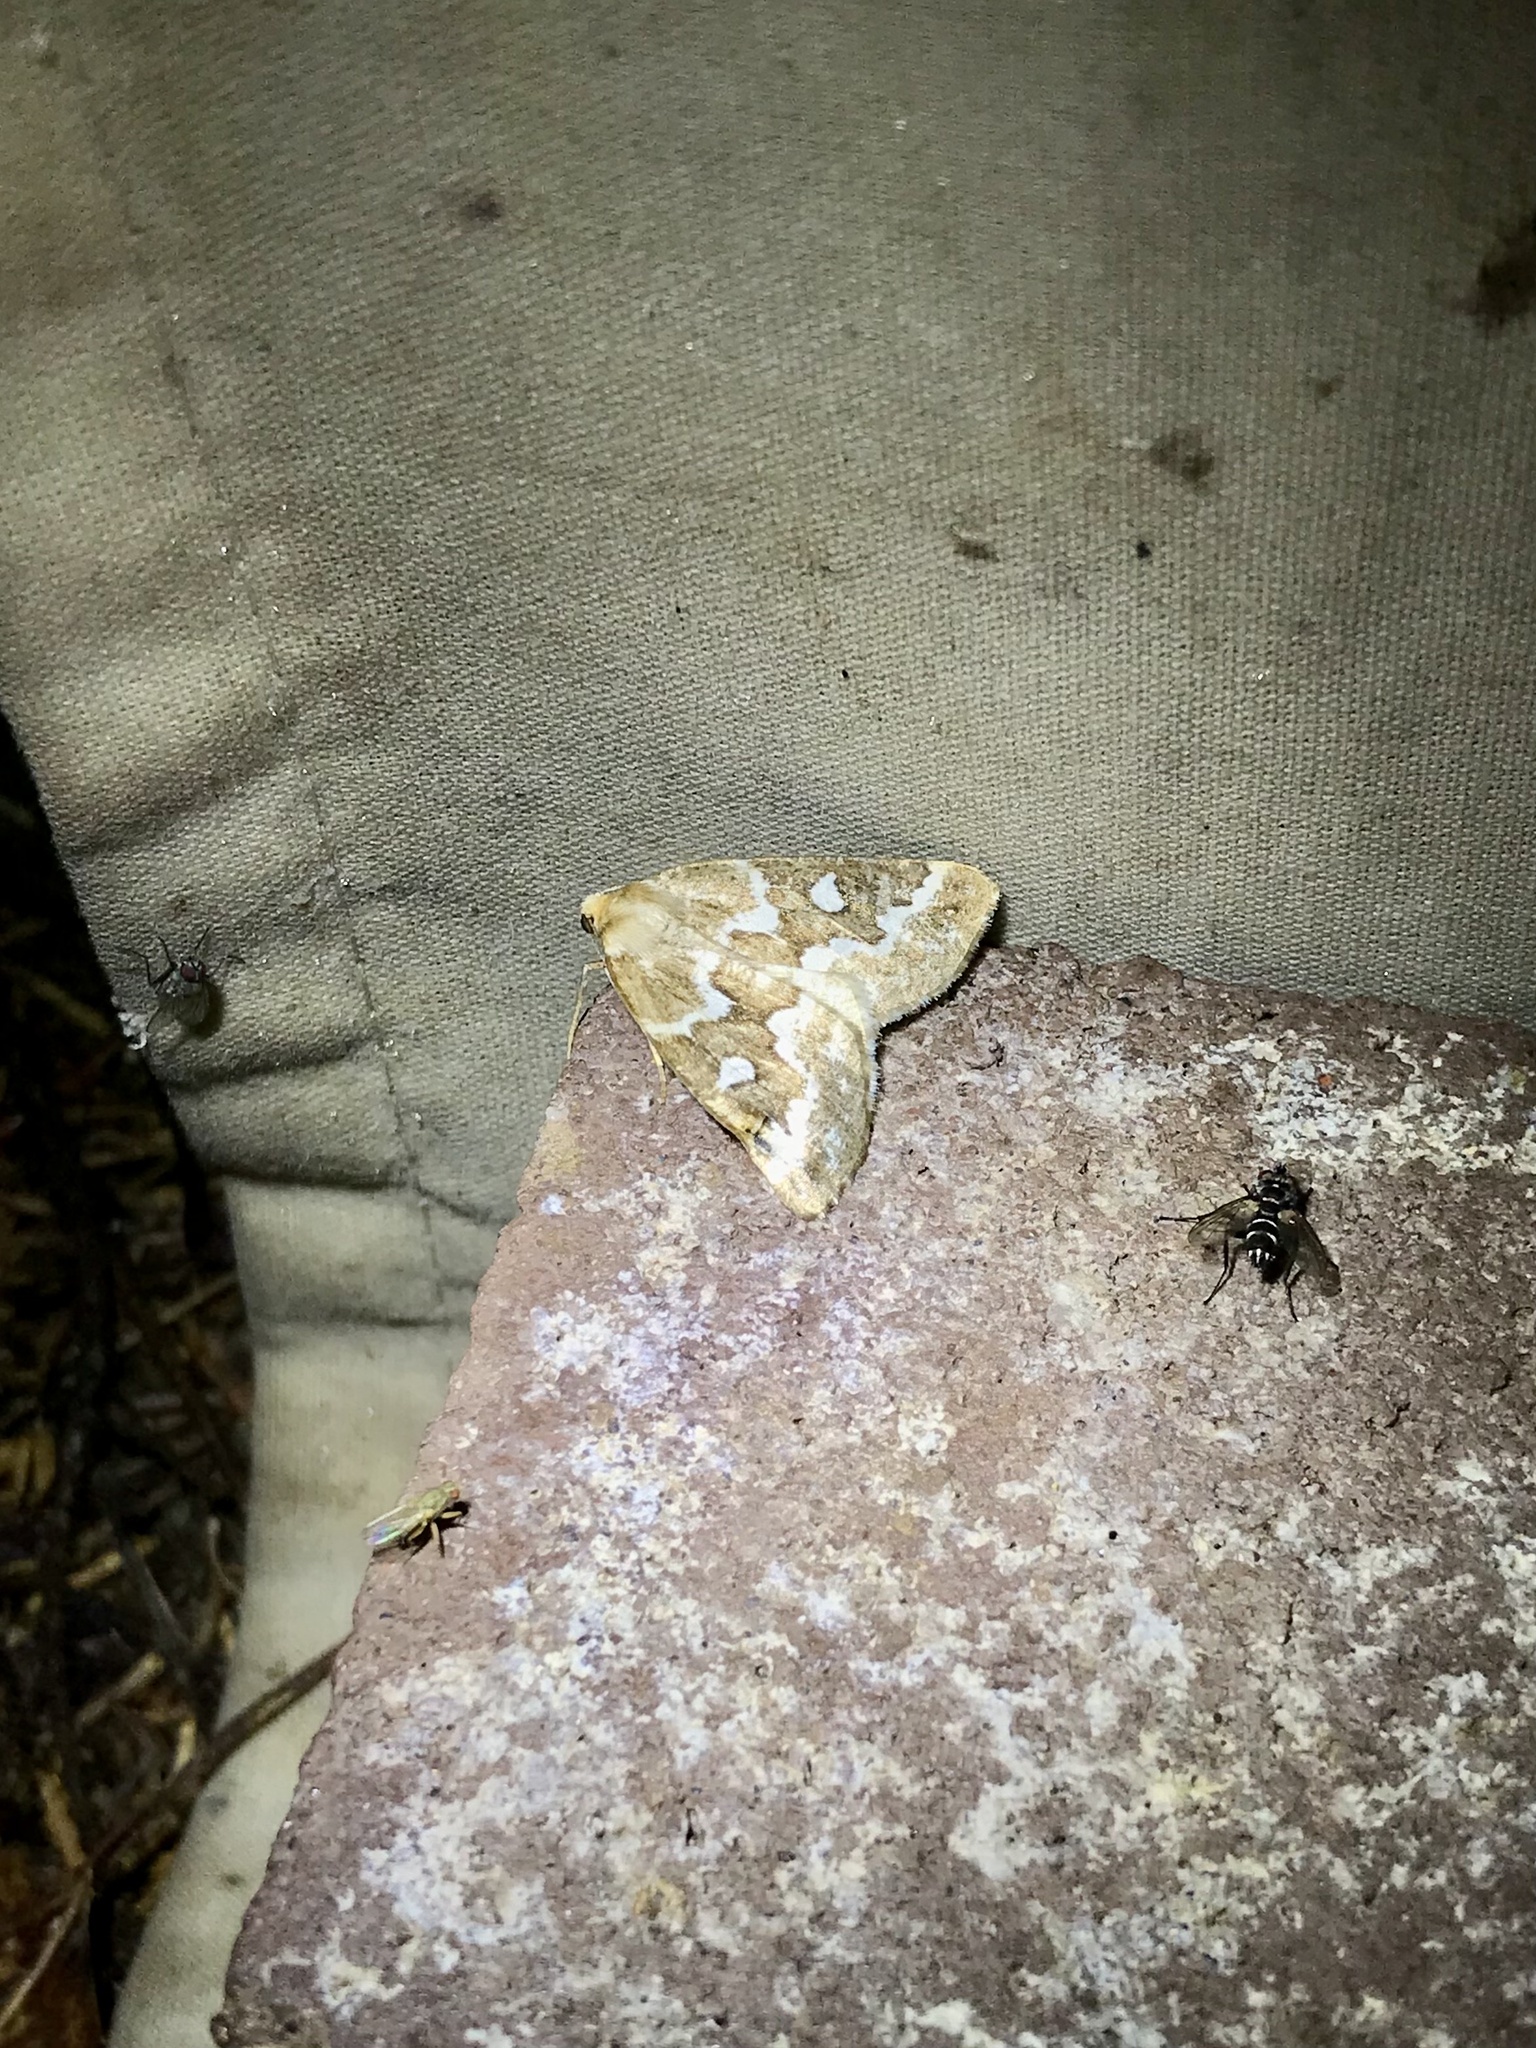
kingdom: Animalia
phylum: Arthropoda
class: Insecta
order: Lepidoptera
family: Geometridae
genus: Caripeta
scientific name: Caripeta divisata
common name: Gray spruce looper
